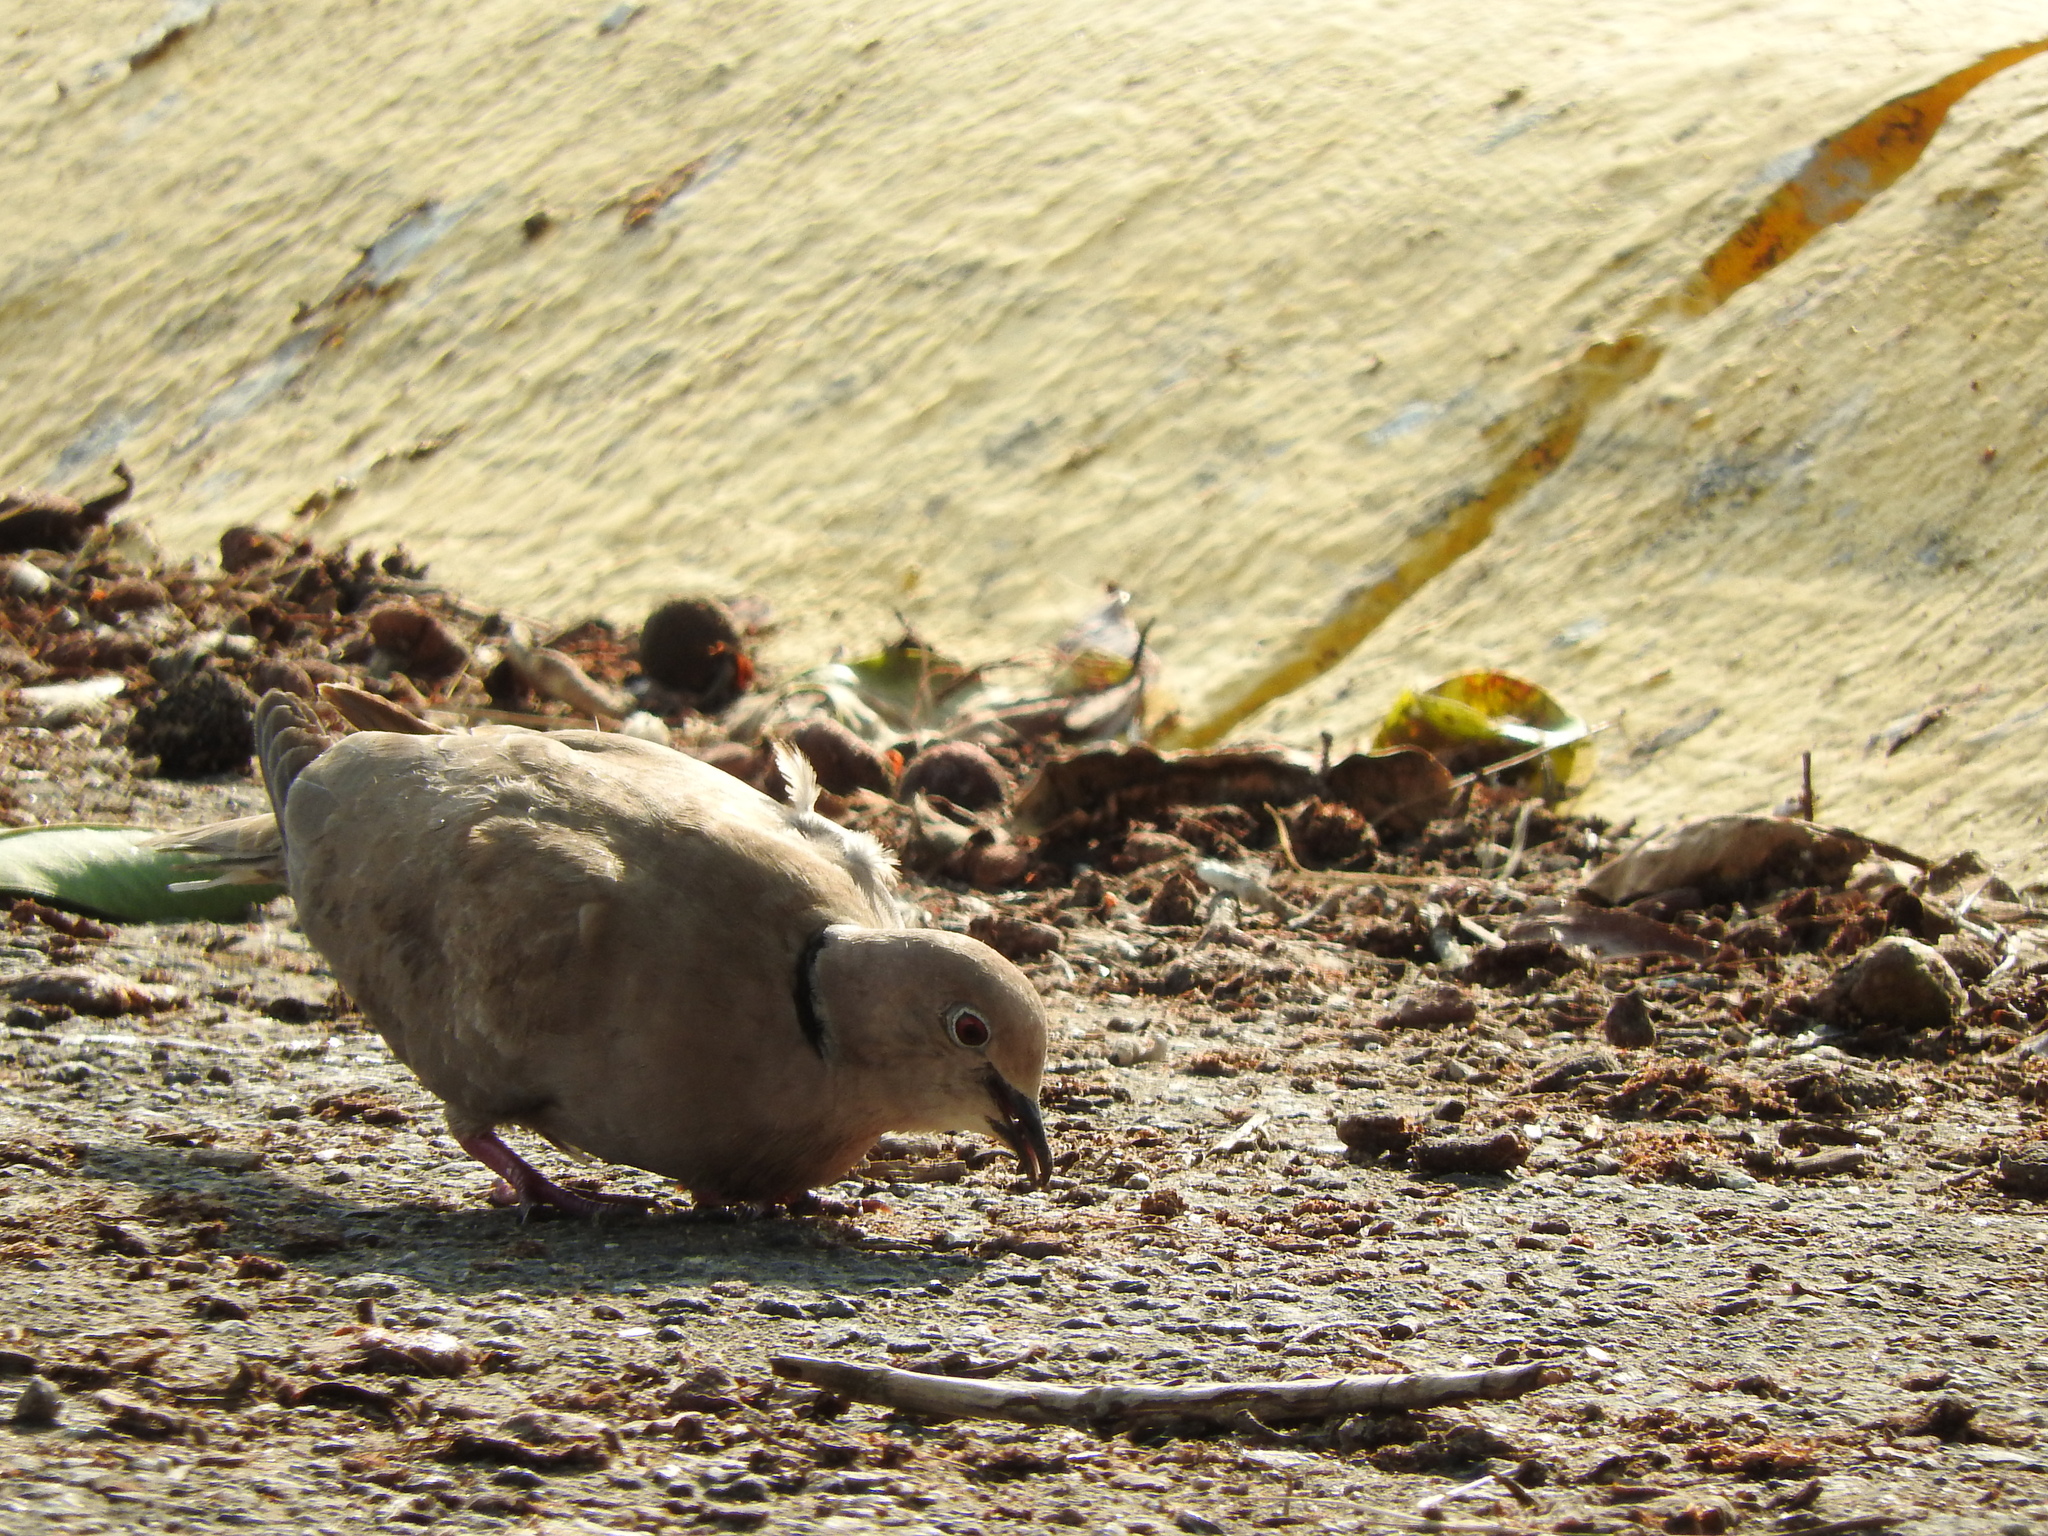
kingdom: Animalia
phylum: Chordata
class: Aves
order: Columbiformes
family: Columbidae
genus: Streptopelia
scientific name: Streptopelia decaocto
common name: Eurasian collared dove
